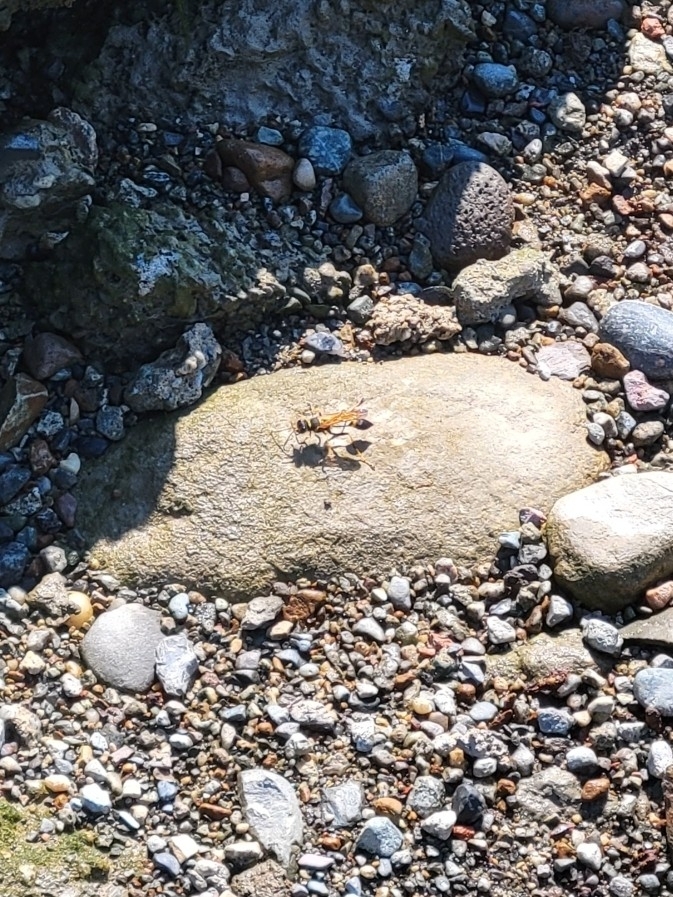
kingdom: Animalia
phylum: Arthropoda
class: Insecta
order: Hymenoptera
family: Sphecidae
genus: Sceliphron
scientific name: Sceliphron caementarium
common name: Mud dauber
